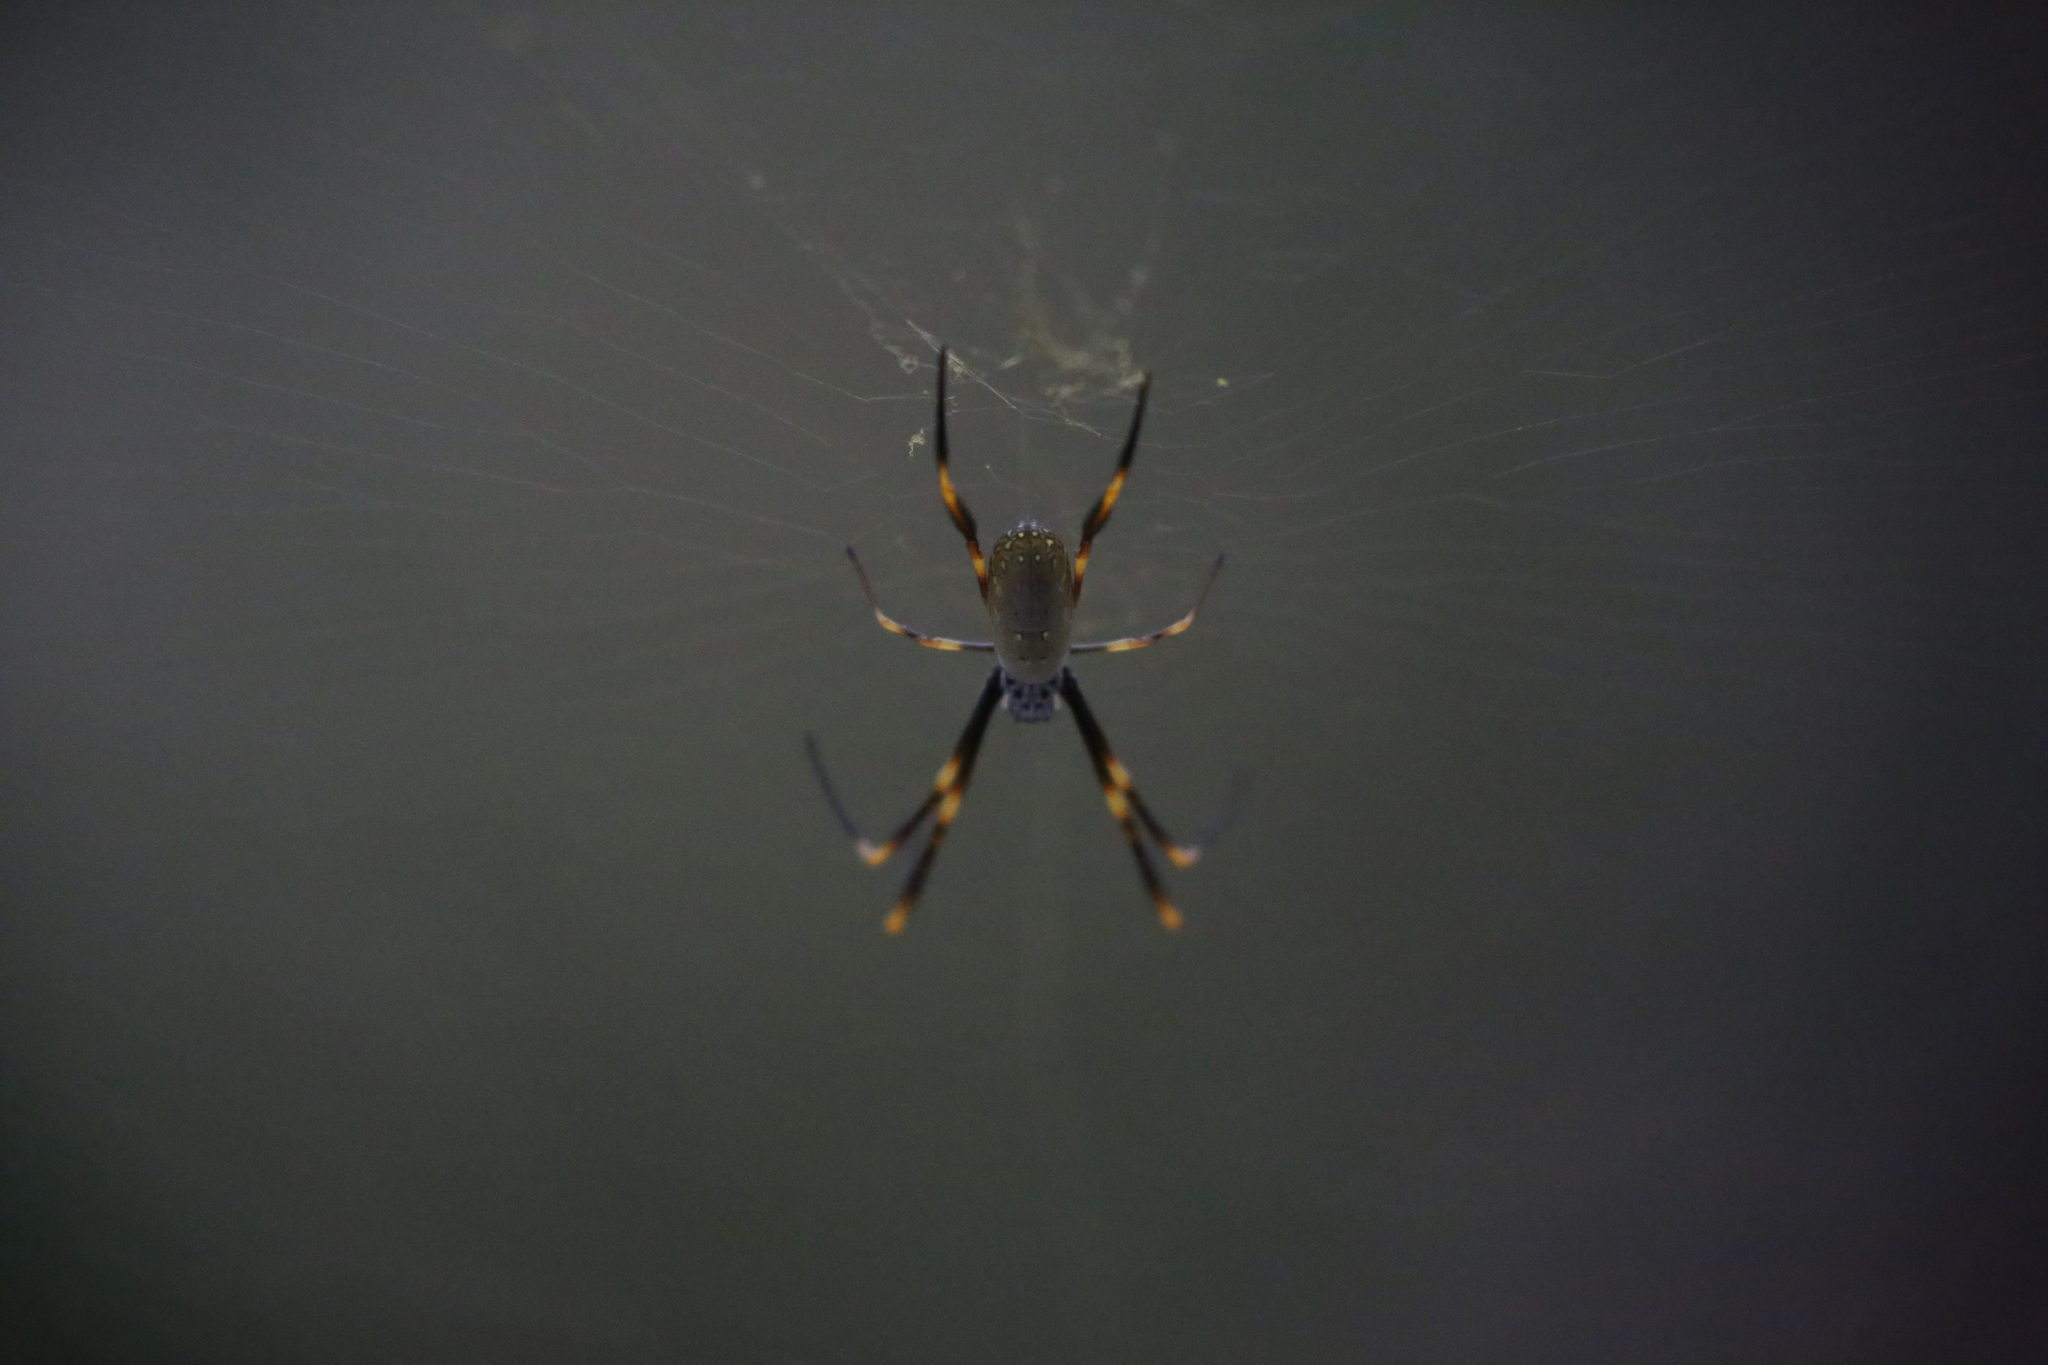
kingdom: Animalia
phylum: Arthropoda
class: Arachnida
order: Araneae
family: Araneidae
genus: Trichonephila
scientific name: Trichonephila plumipes
